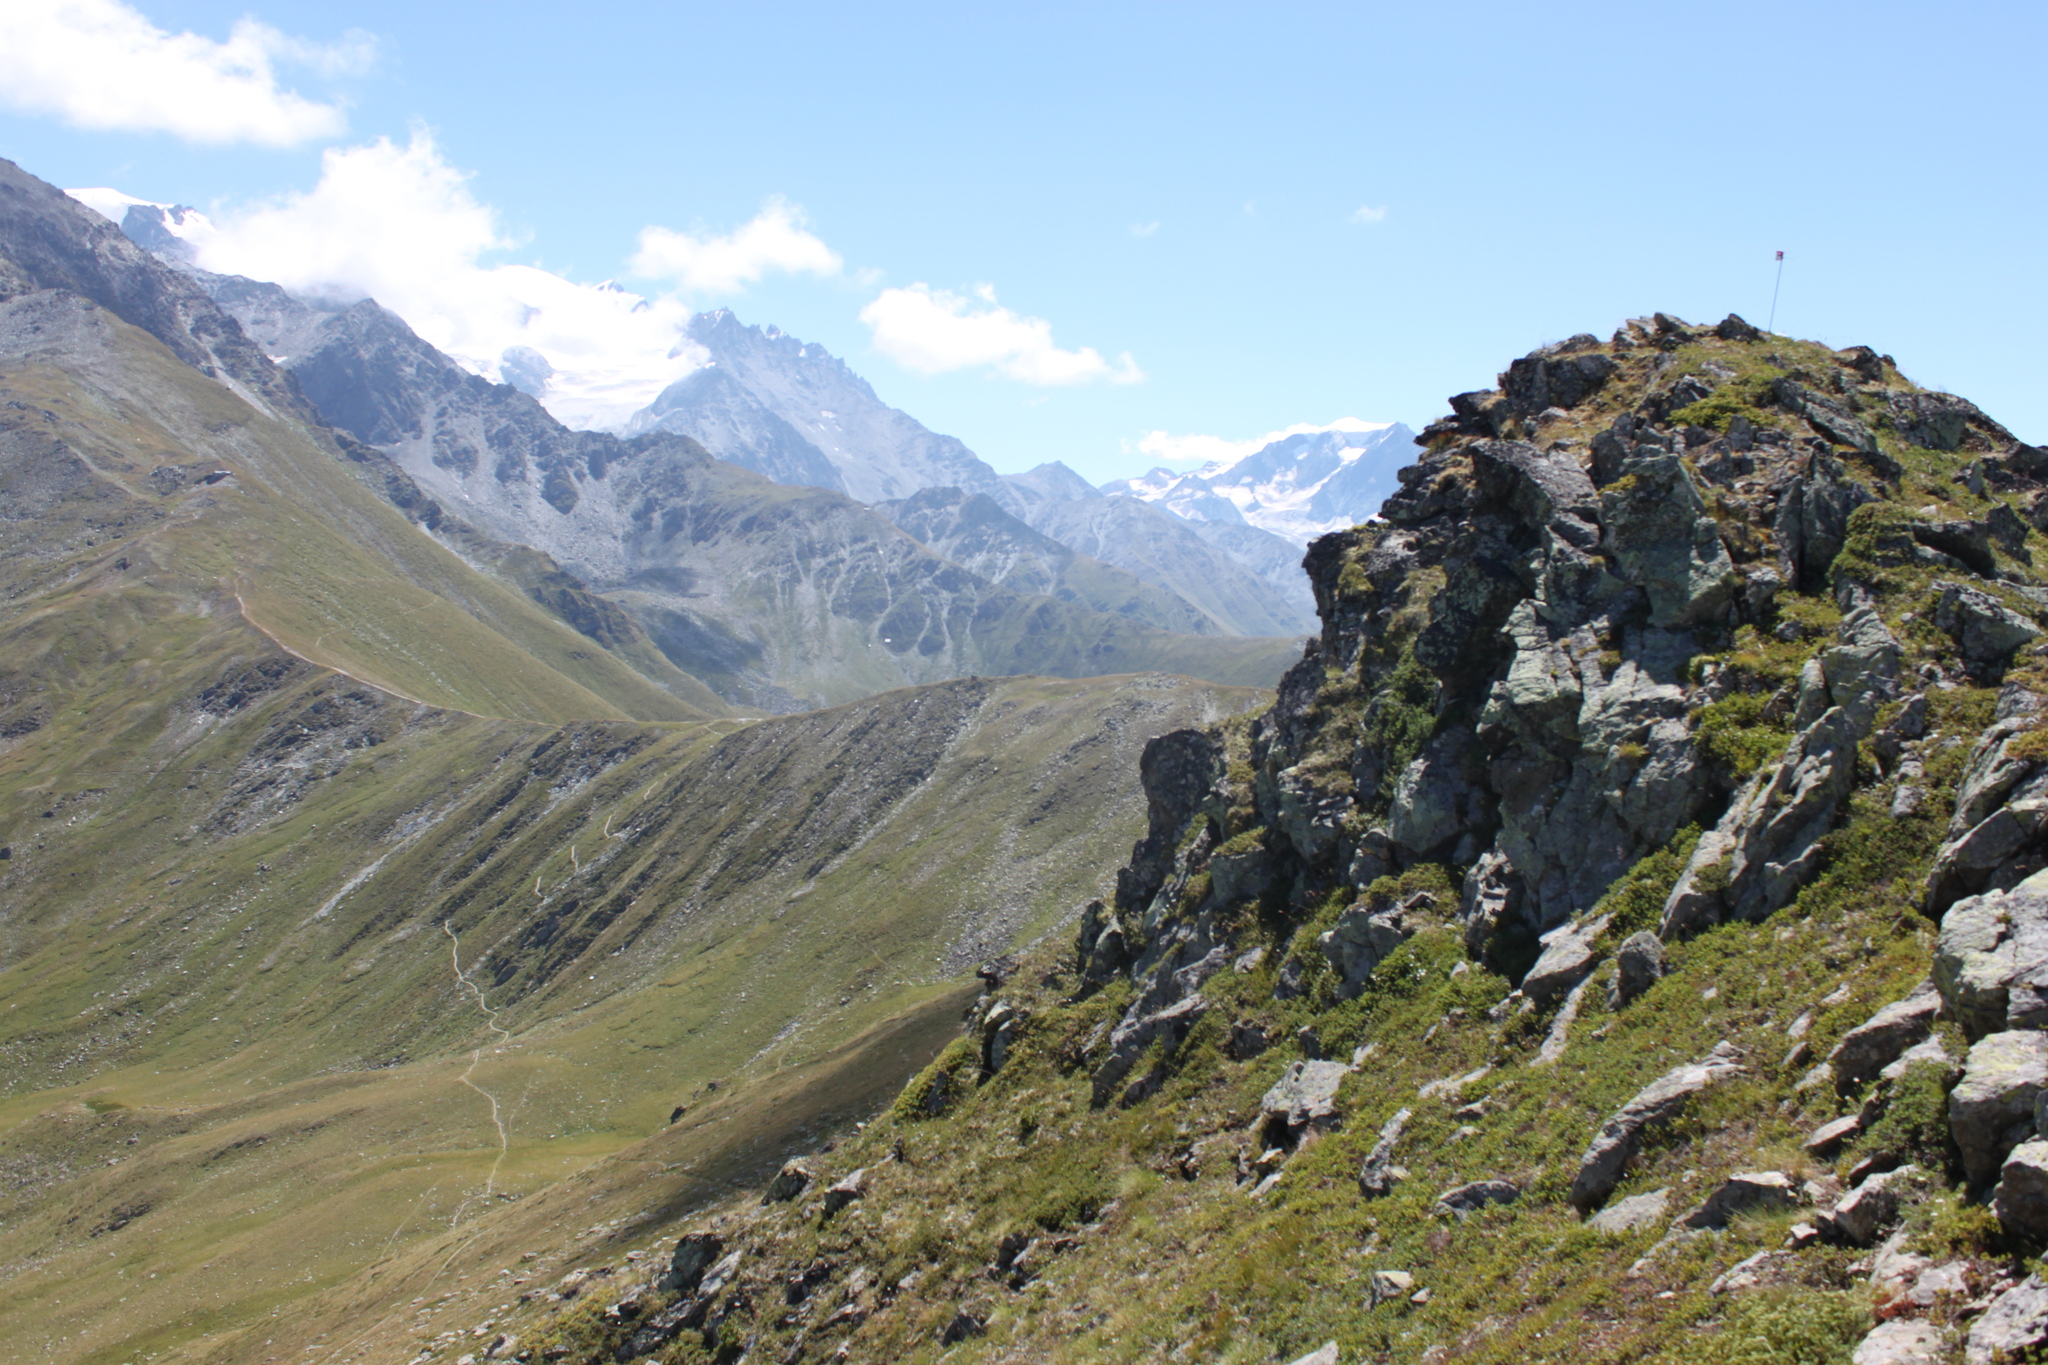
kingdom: Plantae
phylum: Tracheophyta
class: Magnoliopsida
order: Saxifragales
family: Saxifragaceae
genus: Saxifraga
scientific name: Saxifraga bryoides
